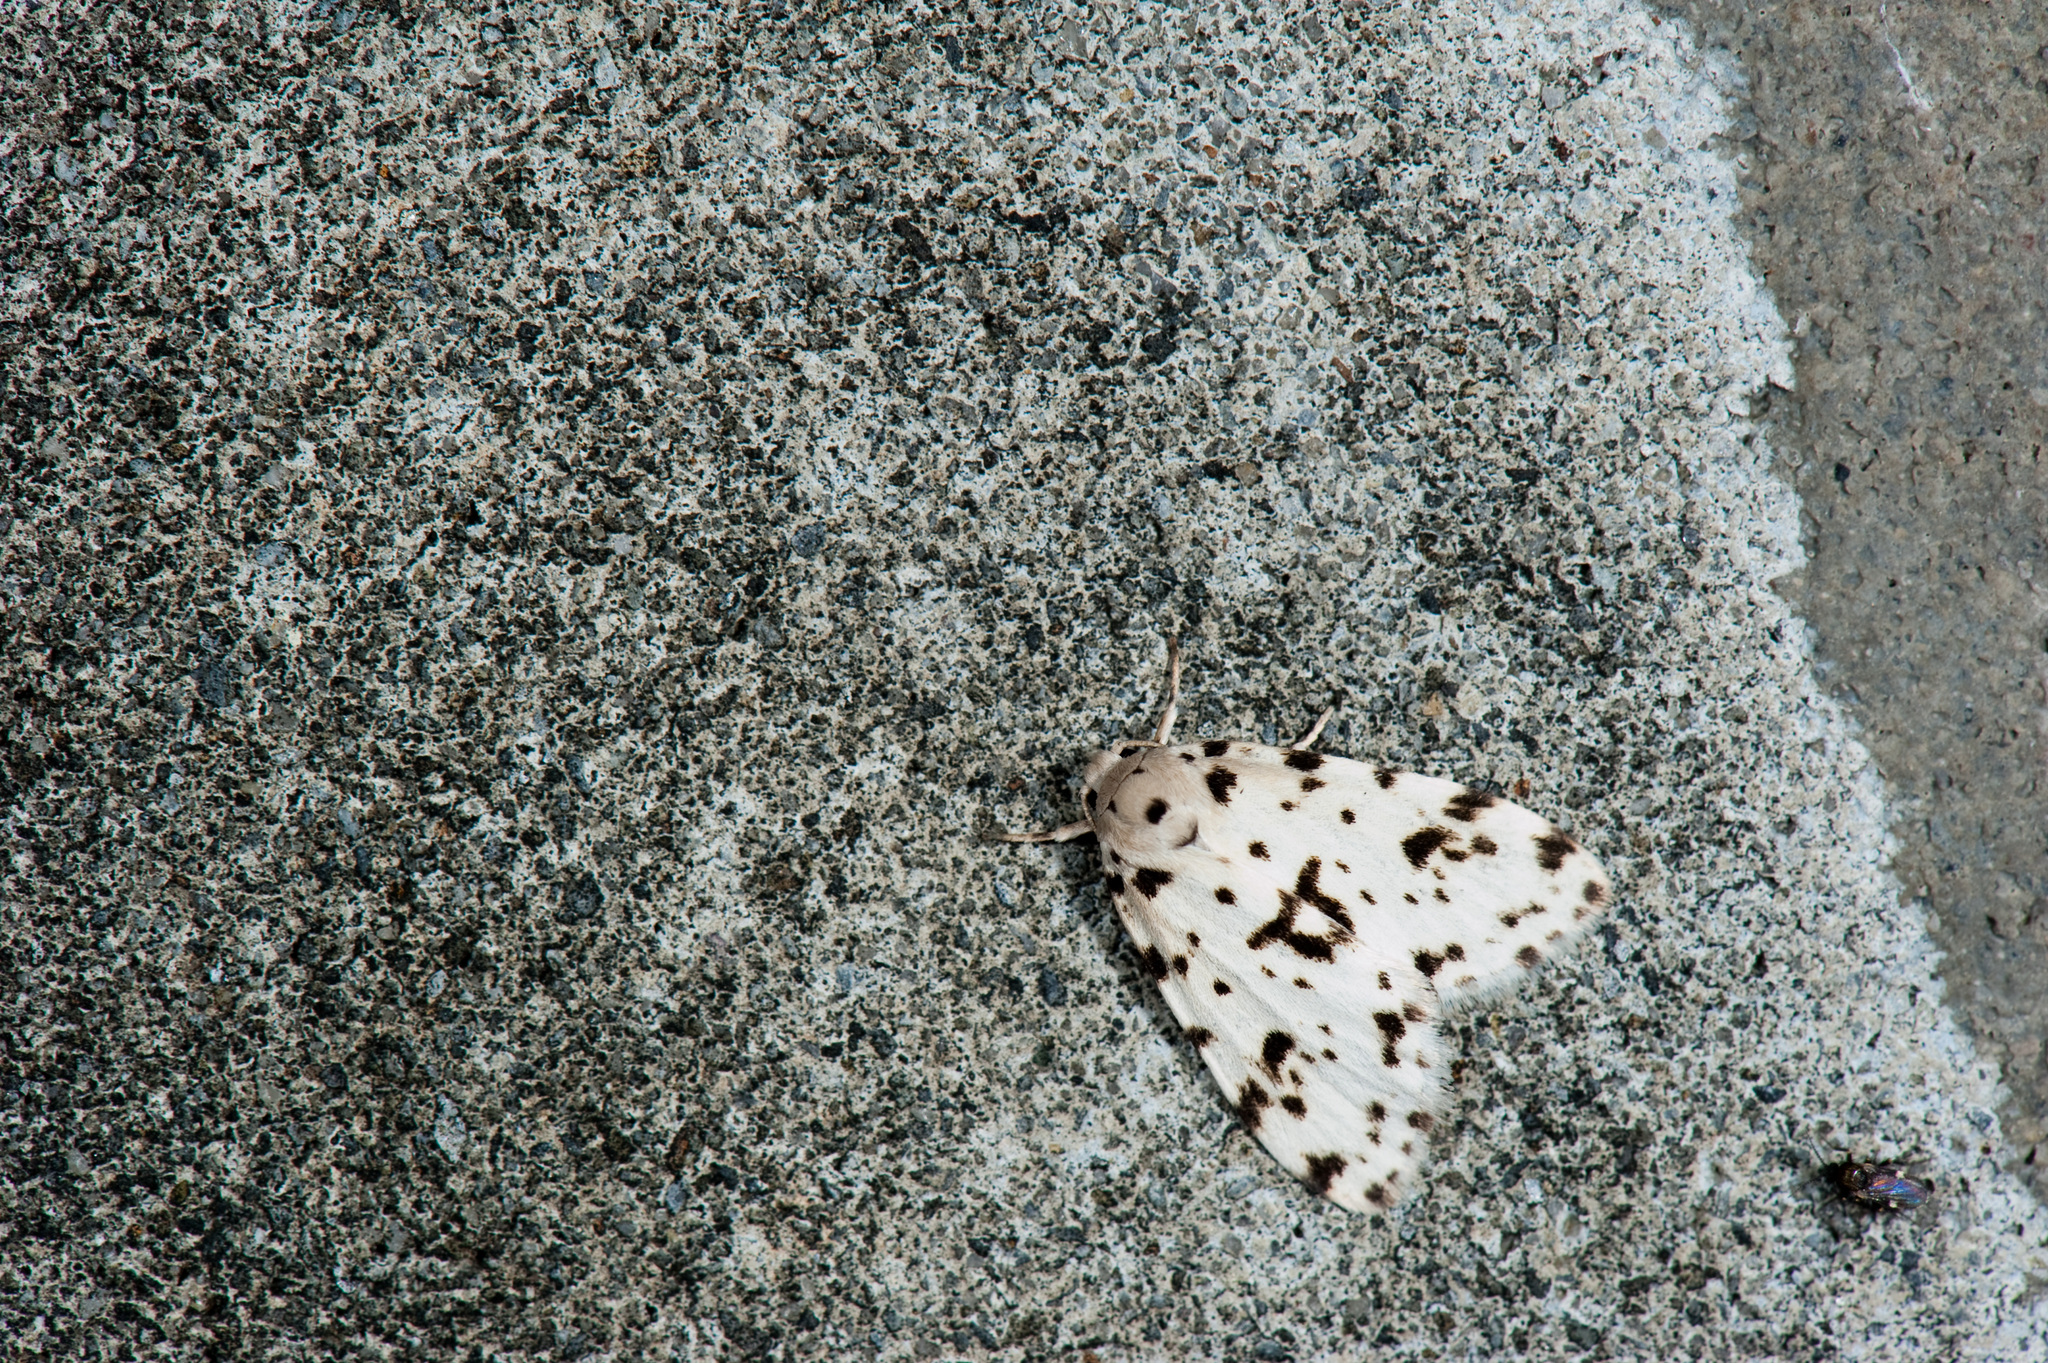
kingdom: Animalia
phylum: Arthropoda
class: Insecta
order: Lepidoptera
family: Erebidae
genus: Siccia
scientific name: Siccia Aemene taiwana
